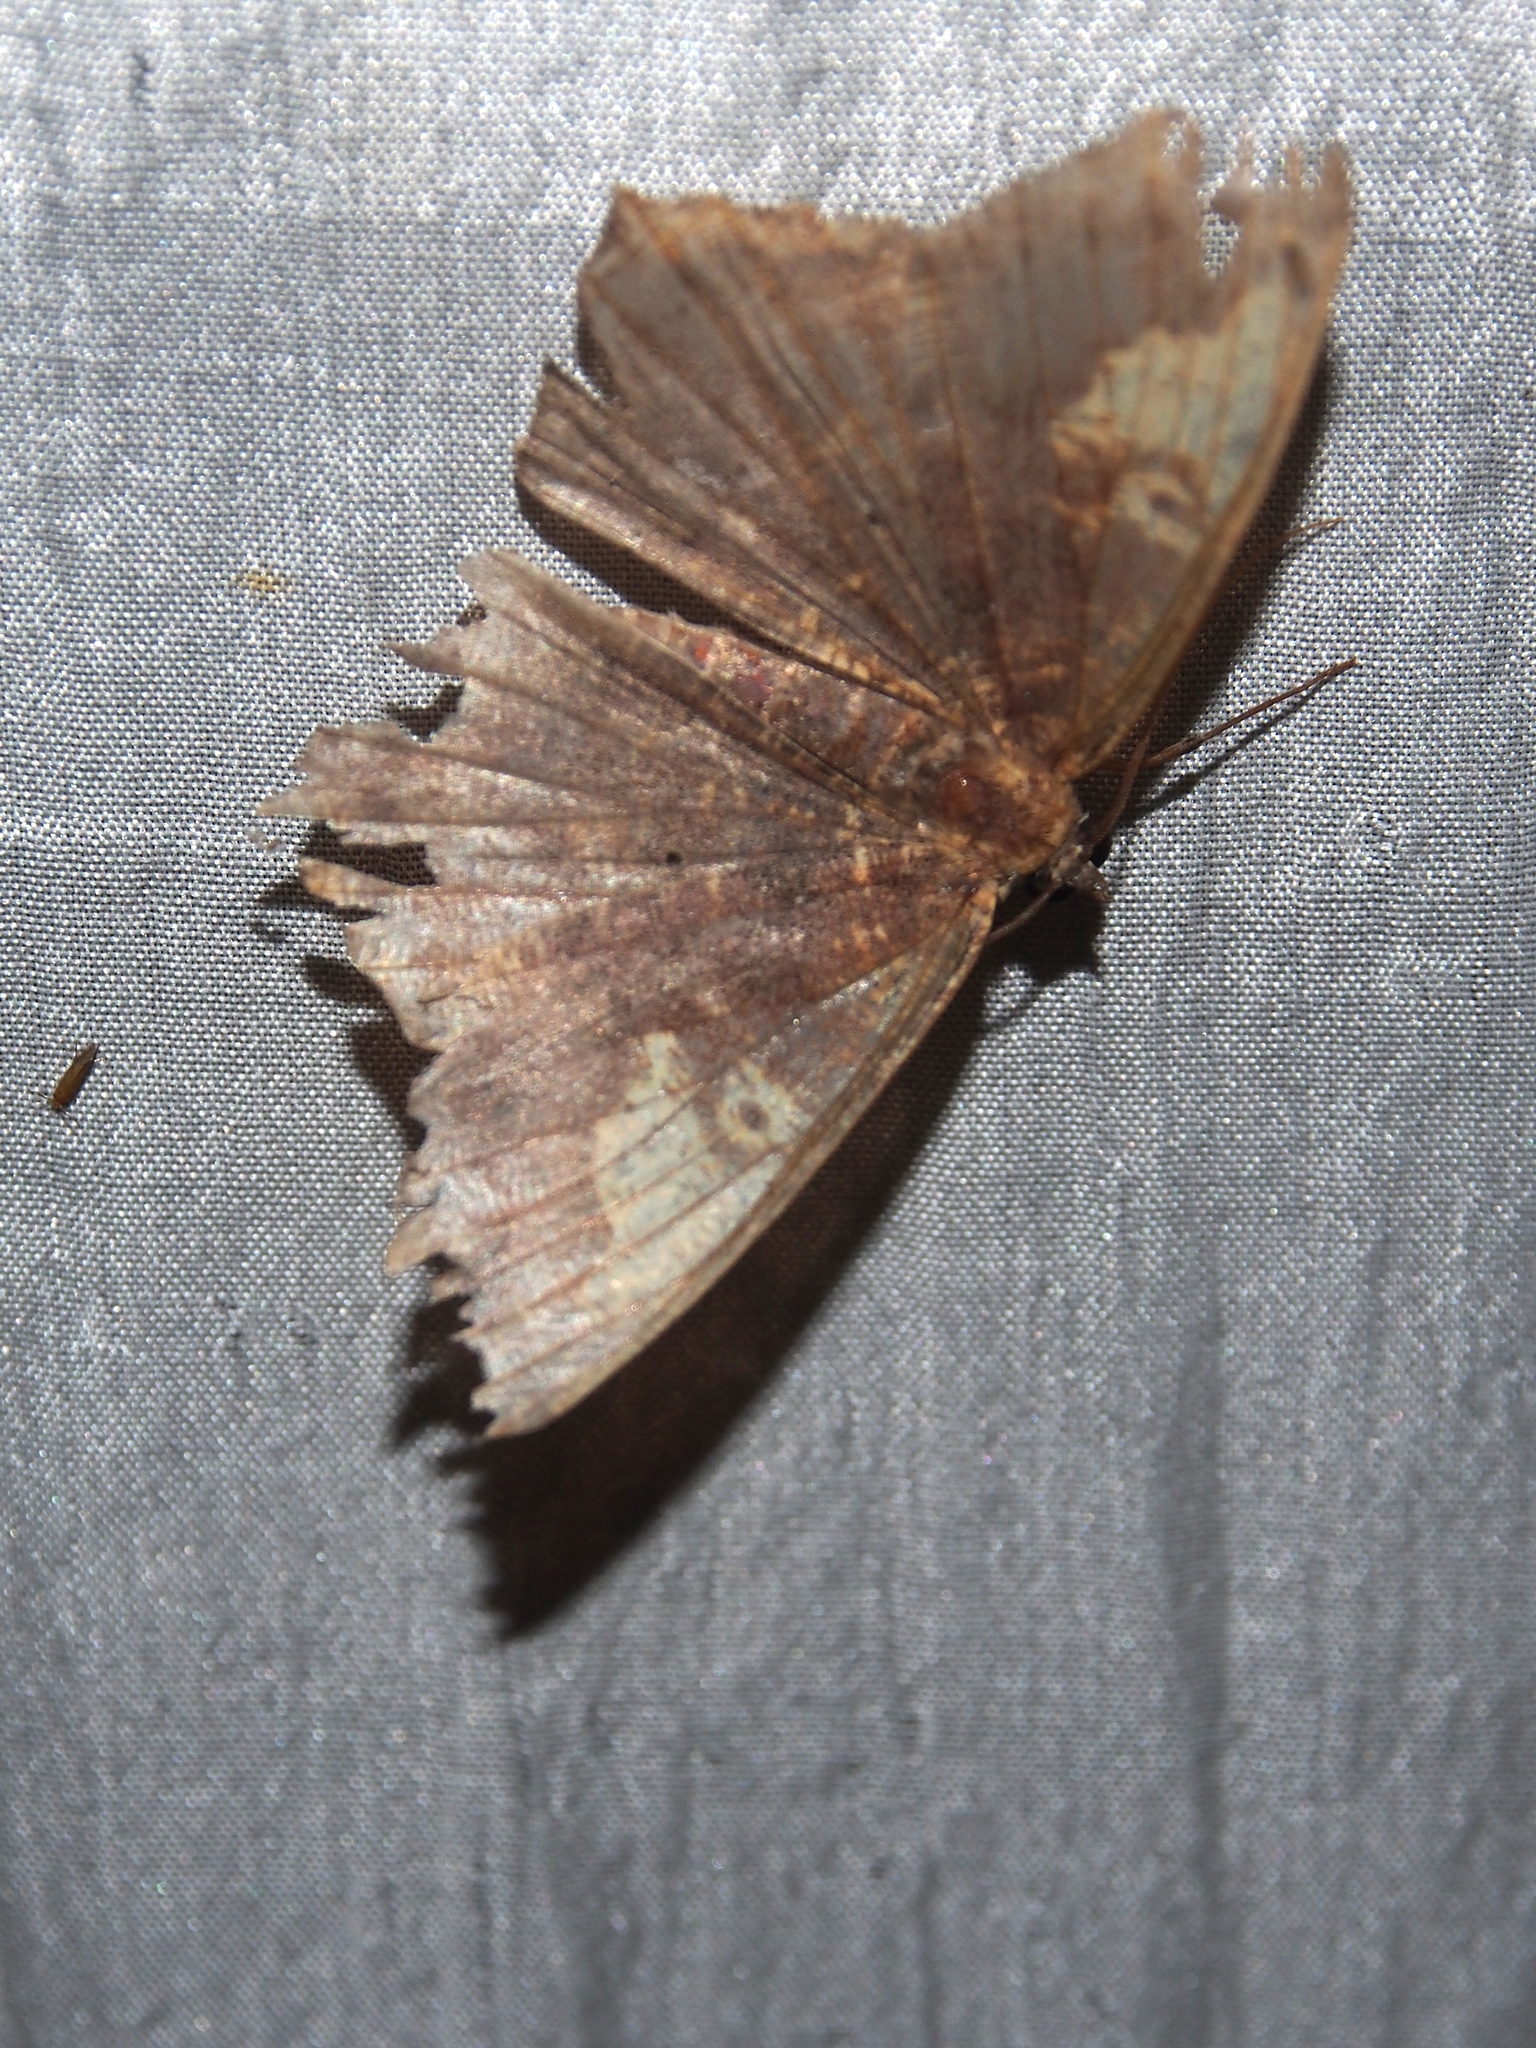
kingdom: Animalia
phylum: Arthropoda
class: Insecta
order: Lepidoptera
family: Geometridae
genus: Paragonia
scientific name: Paragonia cruraria
